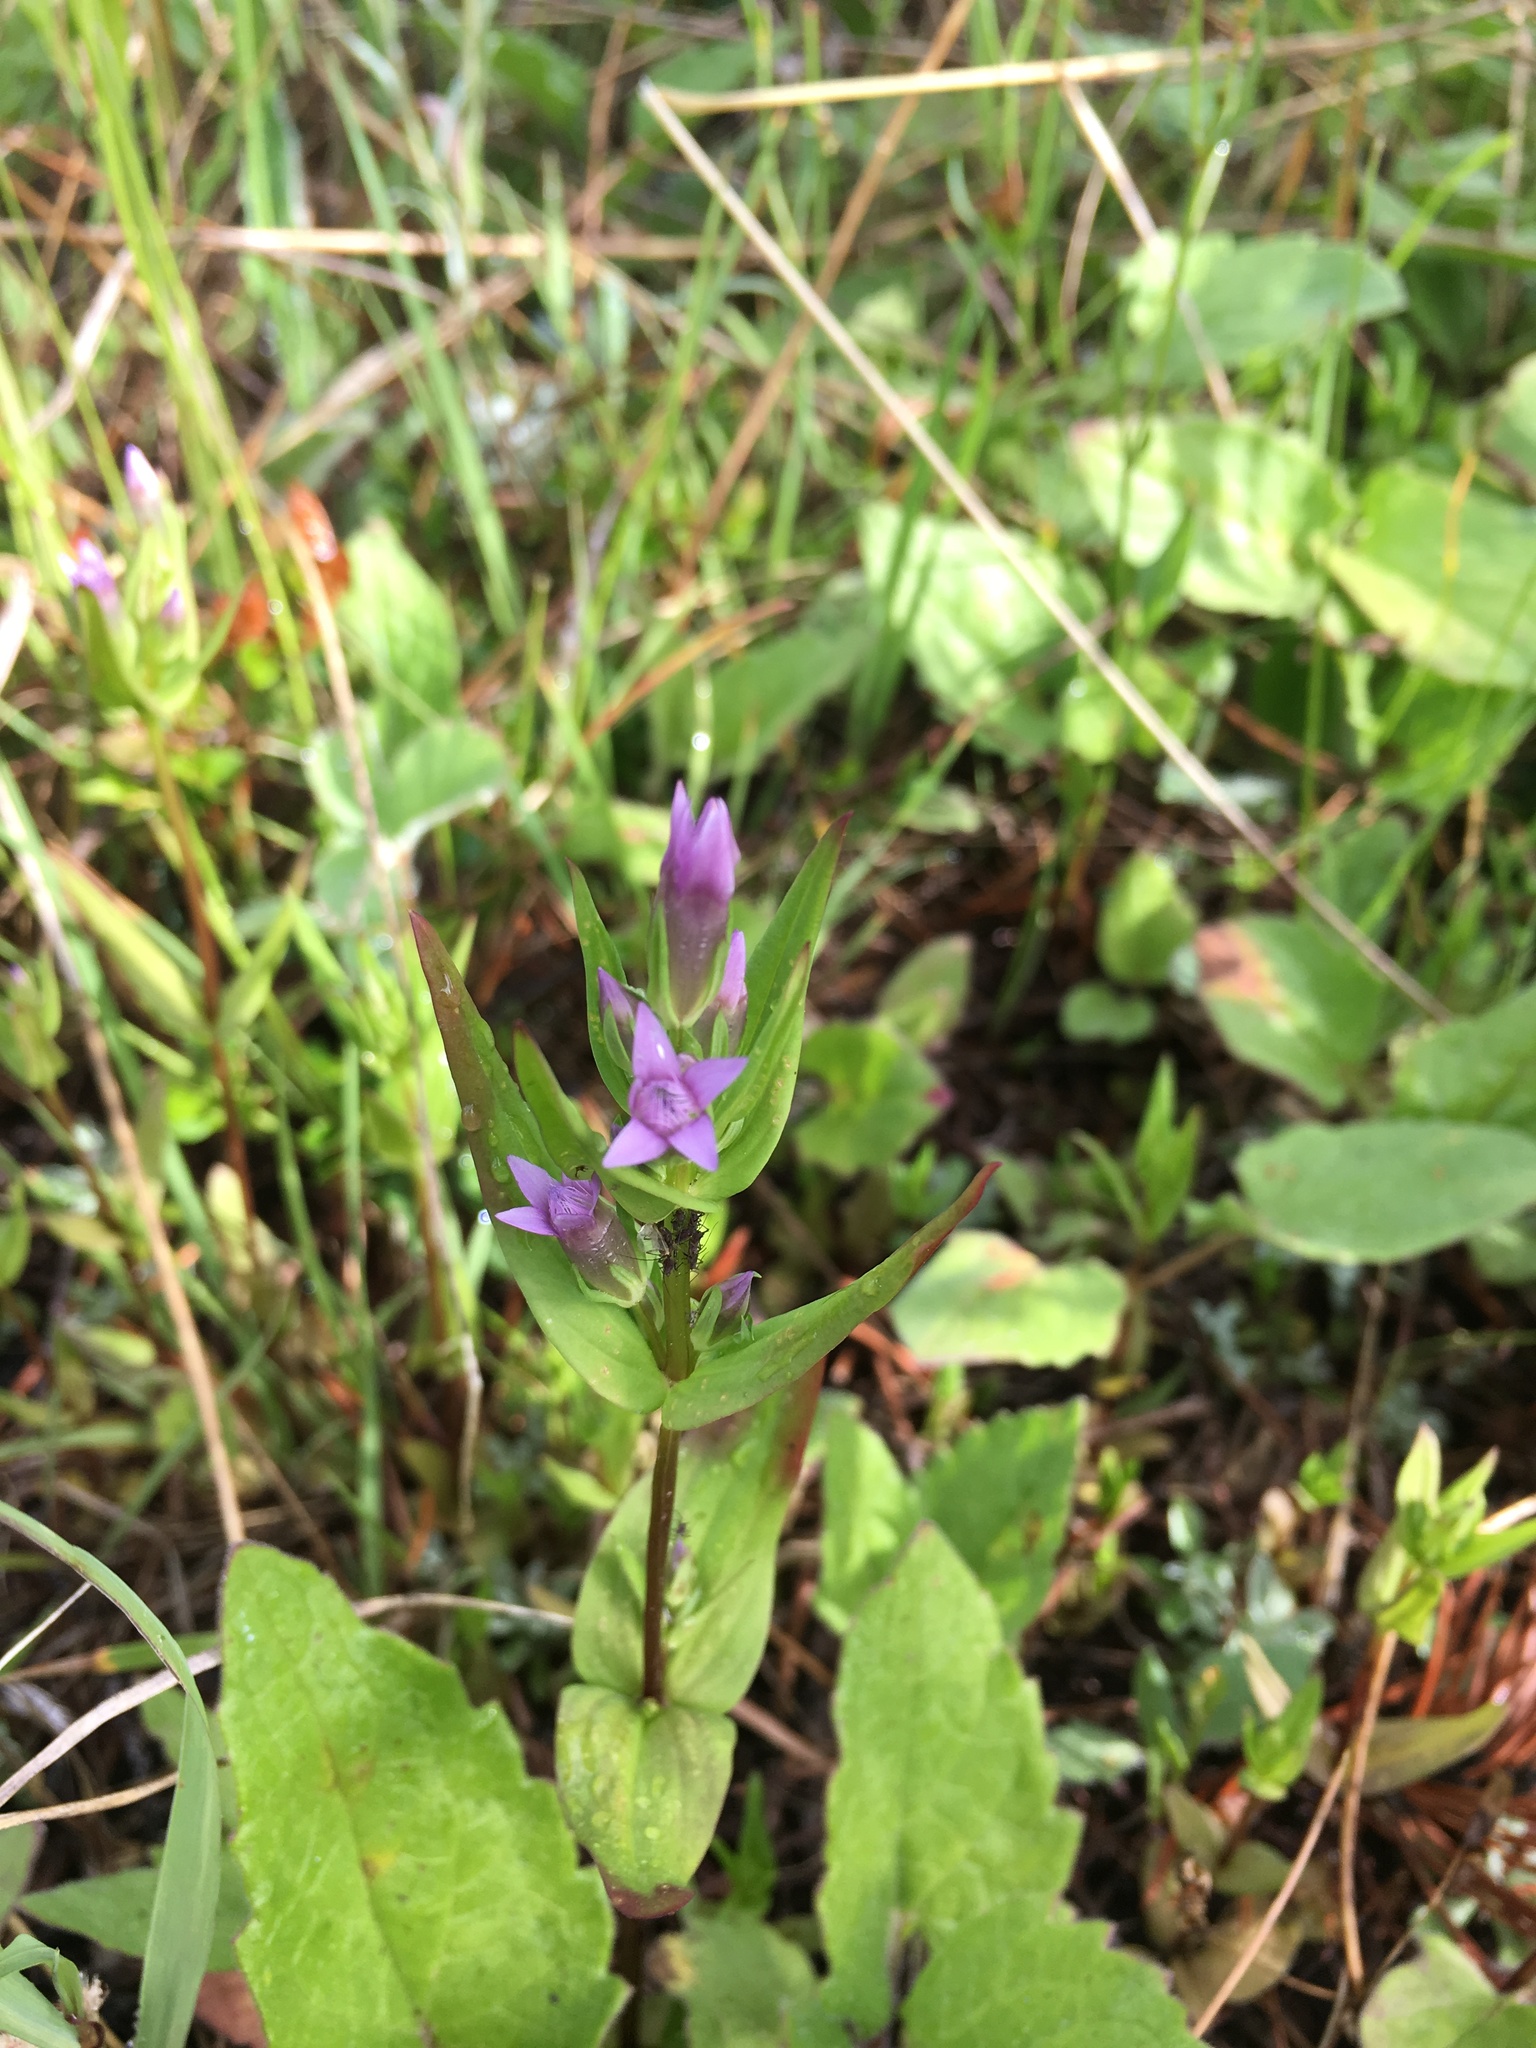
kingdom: Plantae
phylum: Tracheophyta
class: Magnoliopsida
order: Gentianales
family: Gentianaceae
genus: Gentianella
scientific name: Gentianella amarella
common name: Autumn gentian
